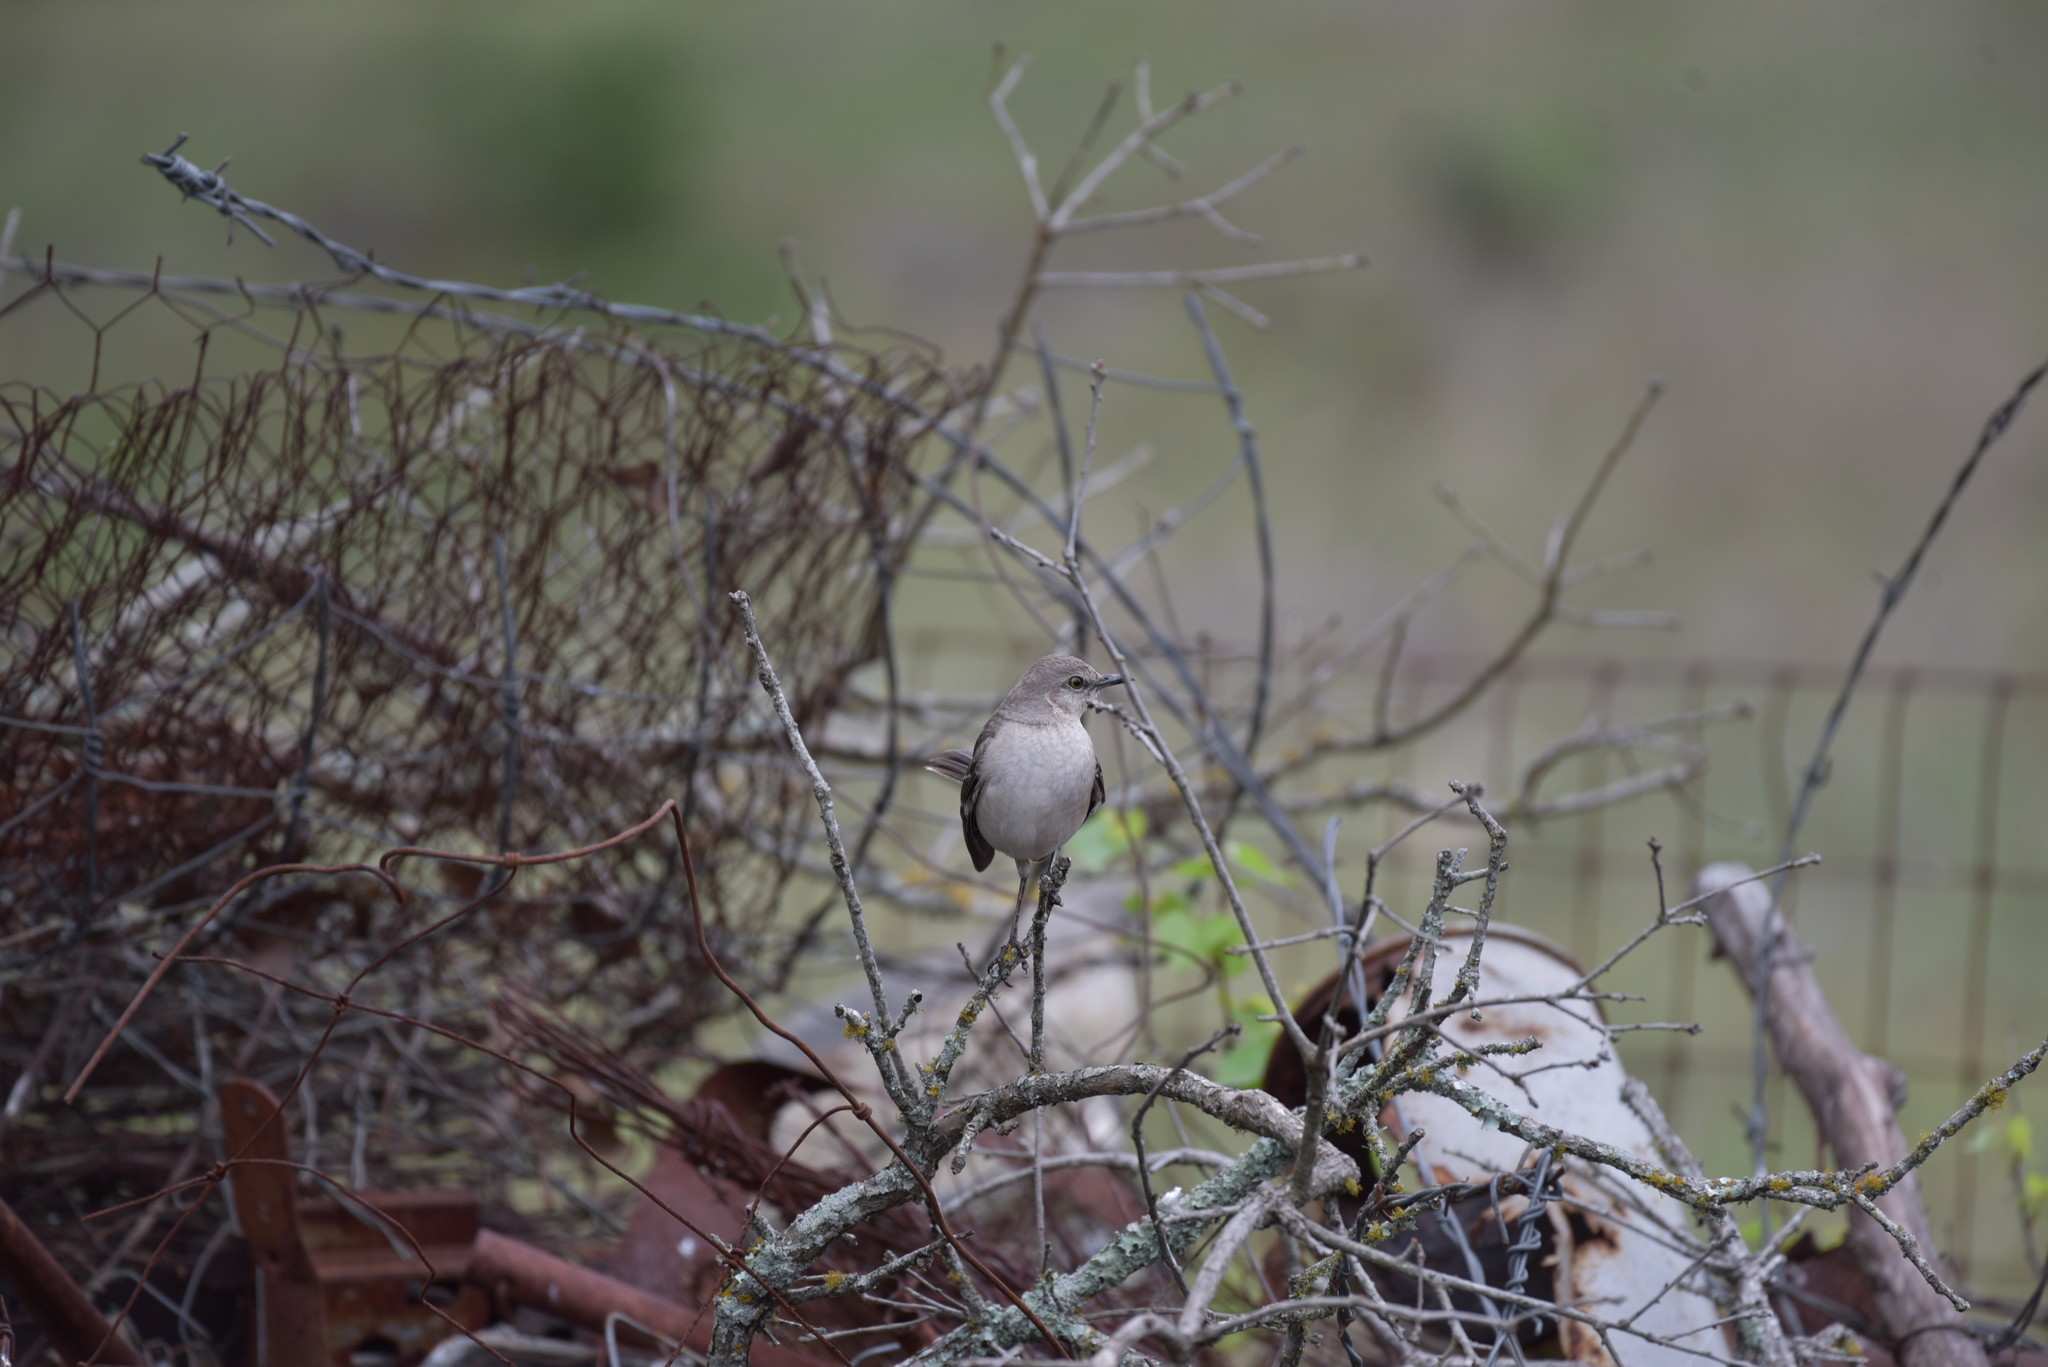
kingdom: Animalia
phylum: Chordata
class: Aves
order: Passeriformes
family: Mimidae
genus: Mimus
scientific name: Mimus polyglottos
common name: Northern mockingbird
